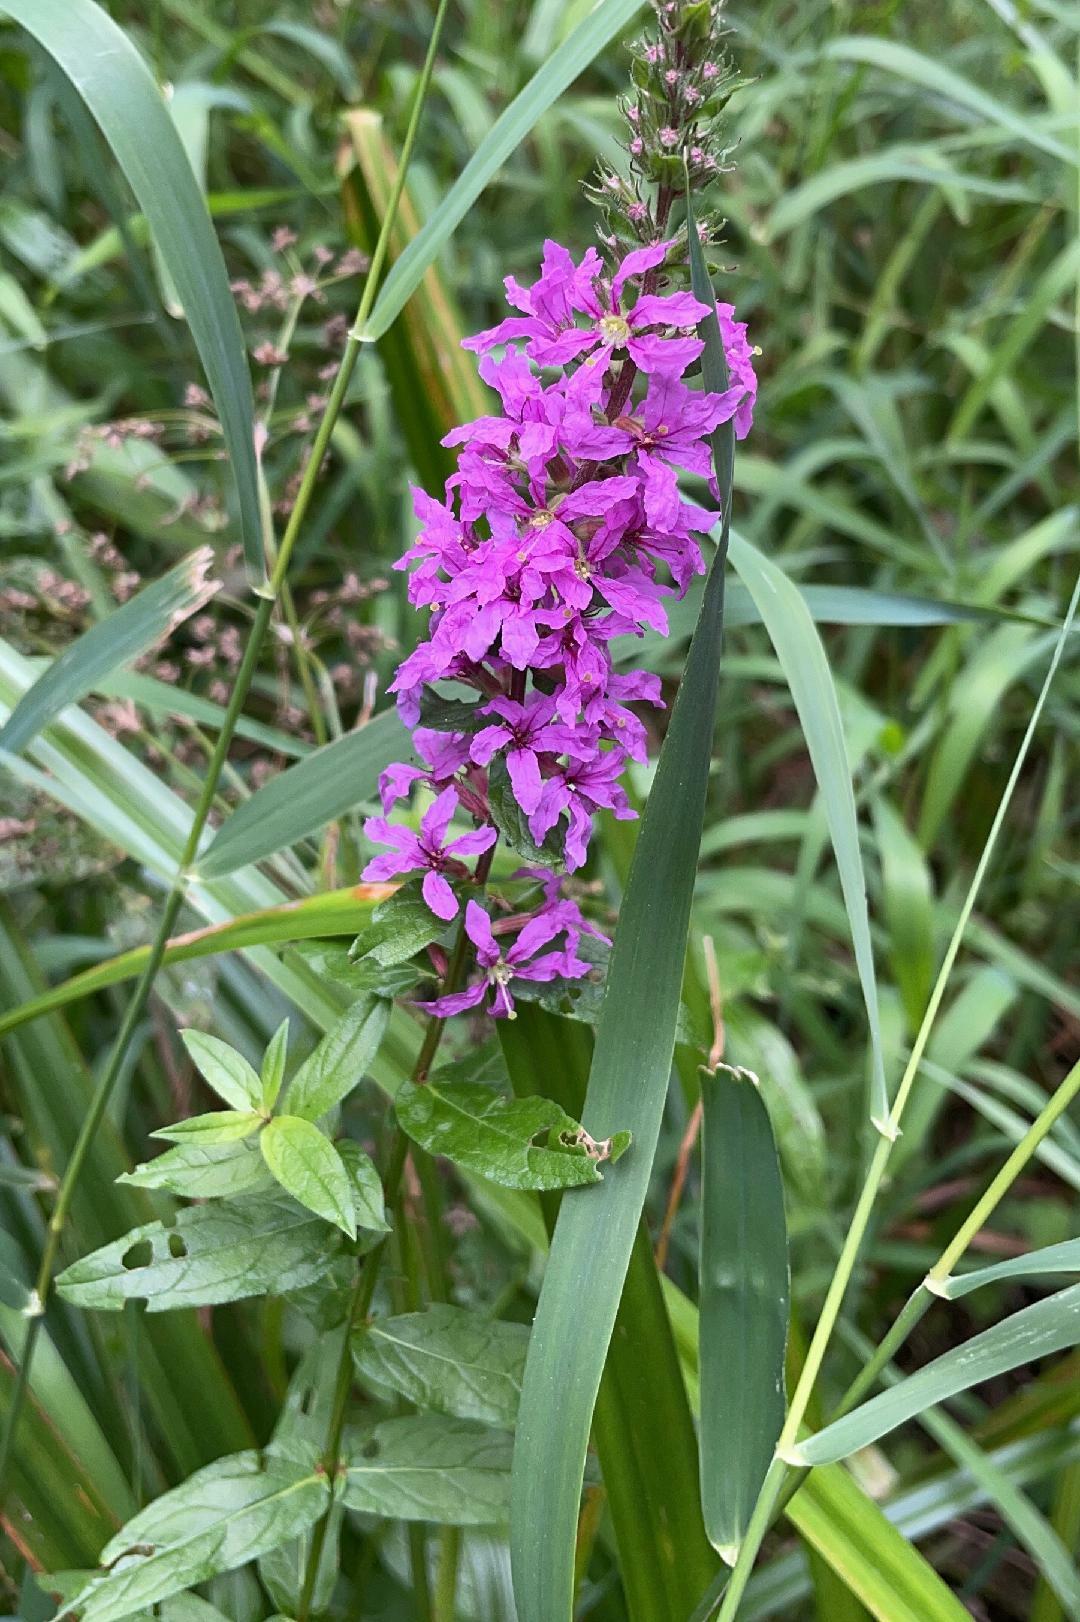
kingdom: Plantae
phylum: Tracheophyta
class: Magnoliopsida
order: Myrtales
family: Lythraceae
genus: Lythrum
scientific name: Lythrum salicaria
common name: Purple loosestrife
